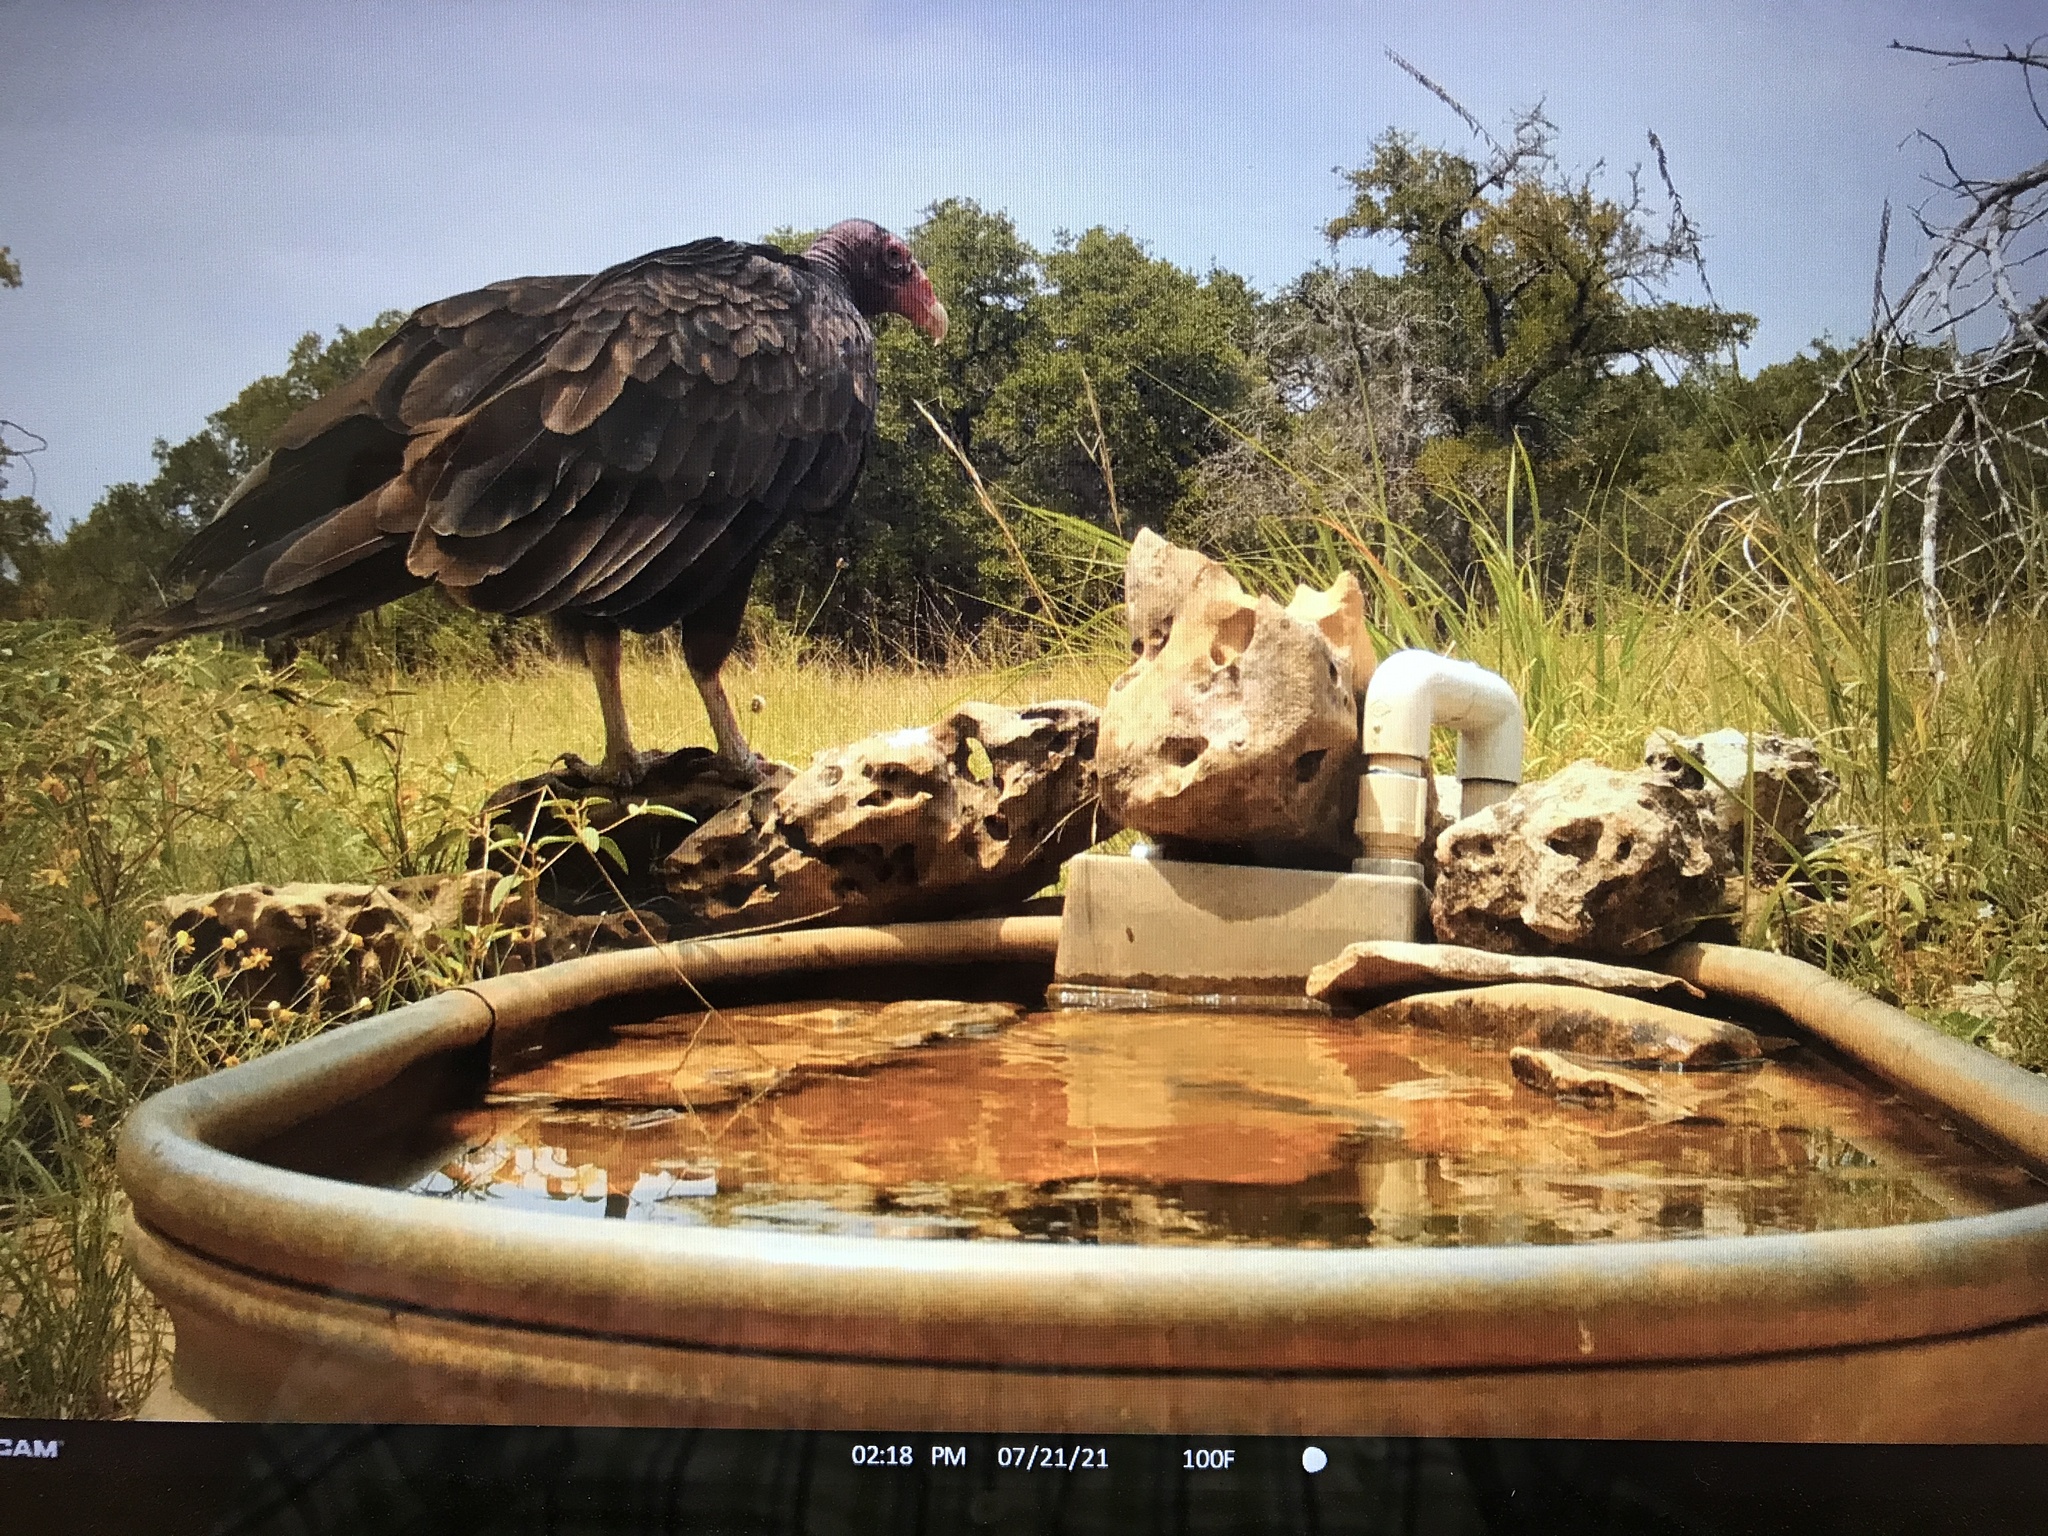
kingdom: Animalia
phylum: Chordata
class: Aves
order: Accipitriformes
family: Cathartidae
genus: Cathartes
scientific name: Cathartes aura
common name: Turkey vulture
